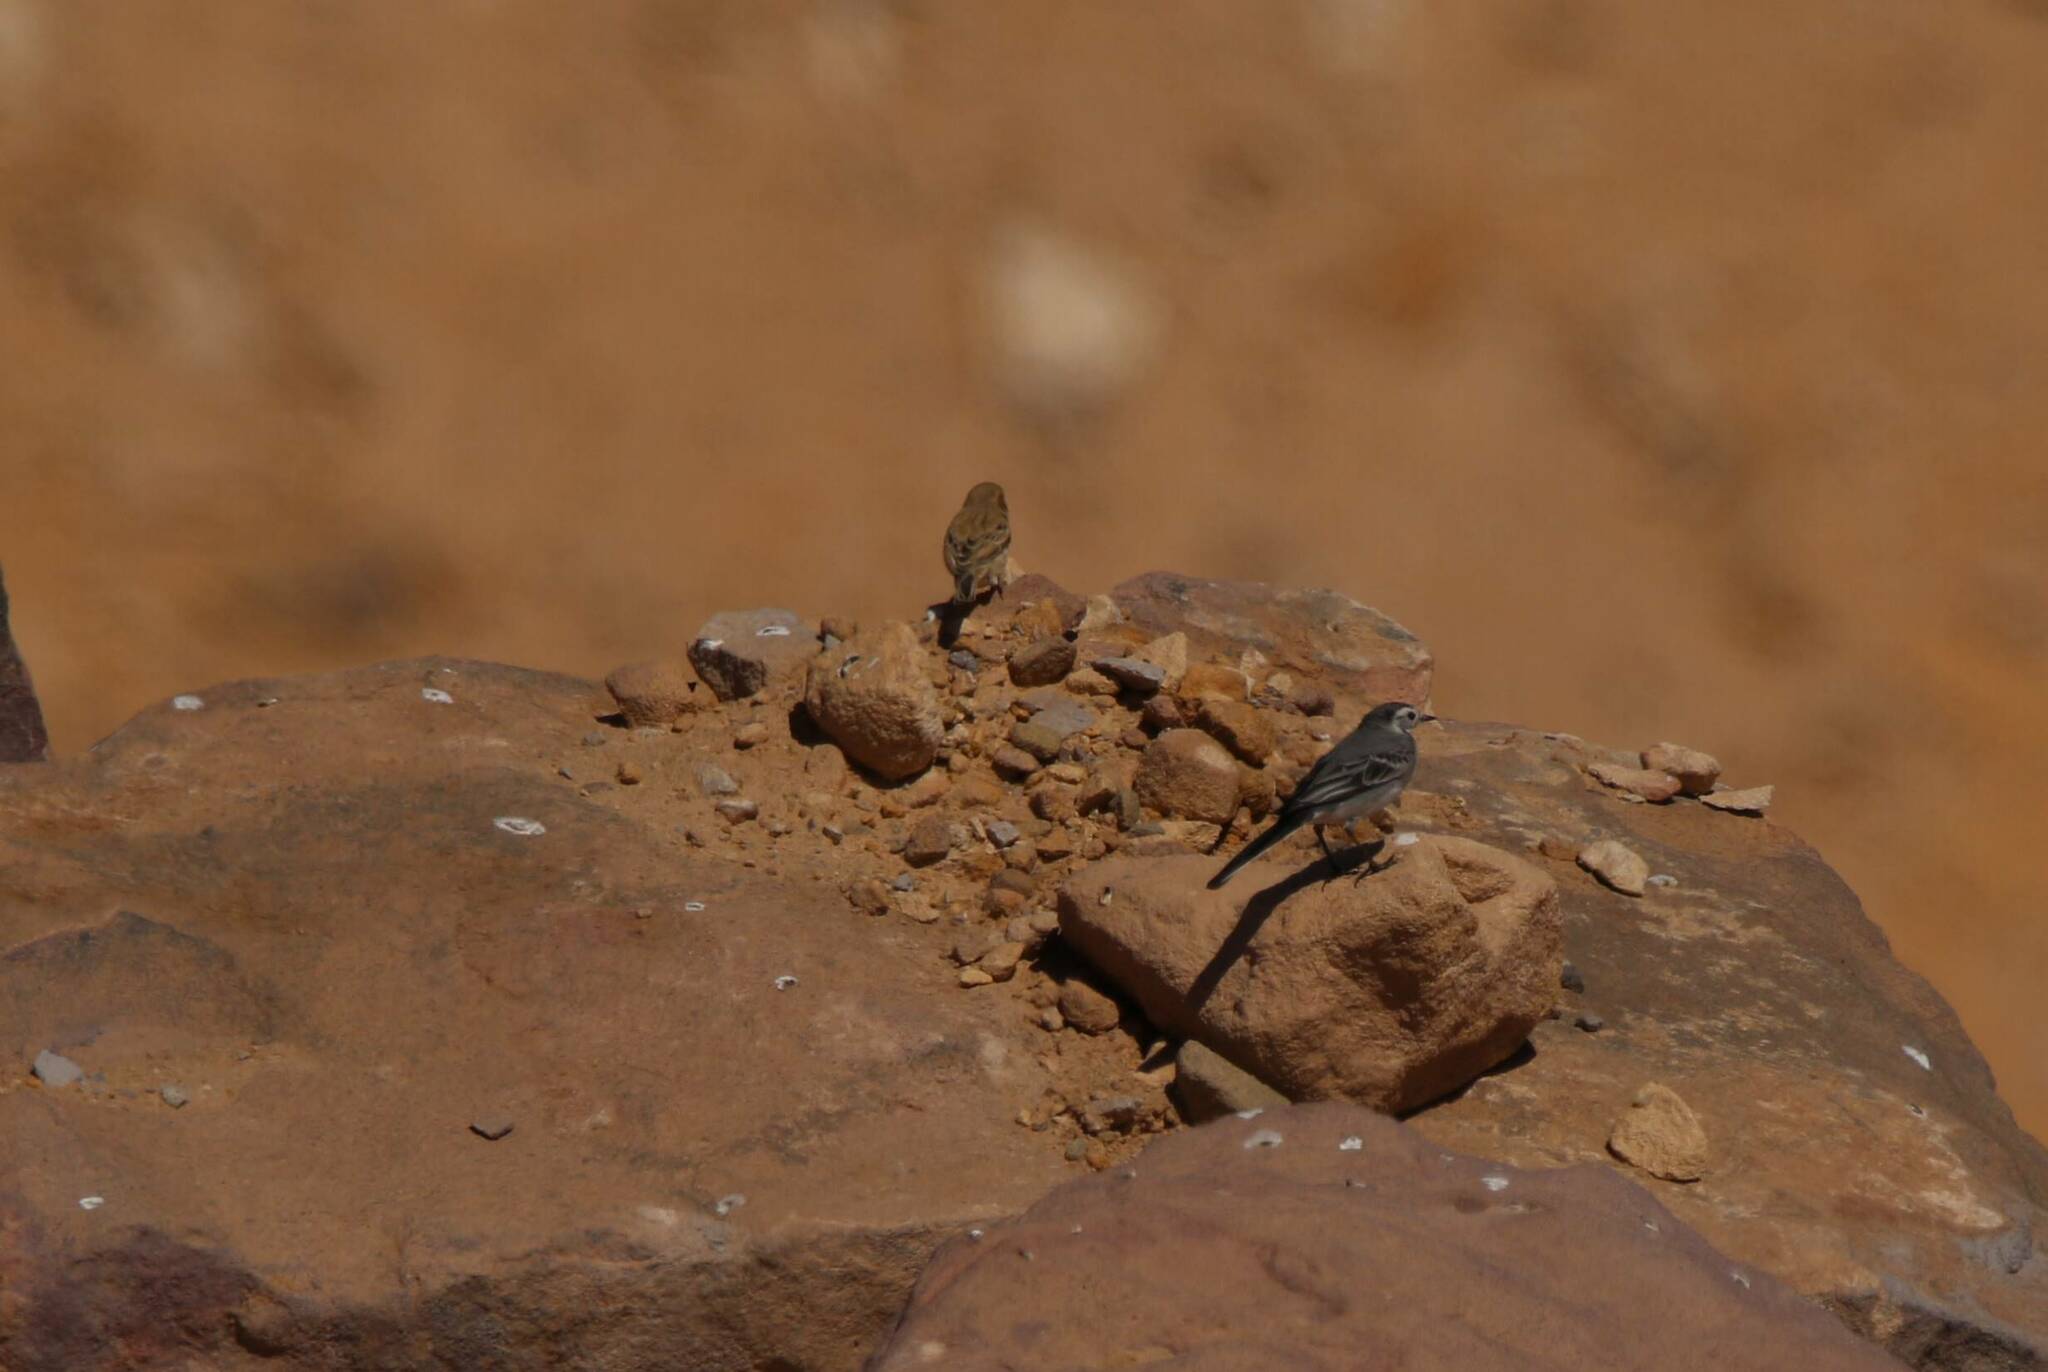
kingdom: Animalia
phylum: Chordata
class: Aves
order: Passeriformes
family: Motacillidae
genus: Motacilla
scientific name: Motacilla alba
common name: White wagtail
